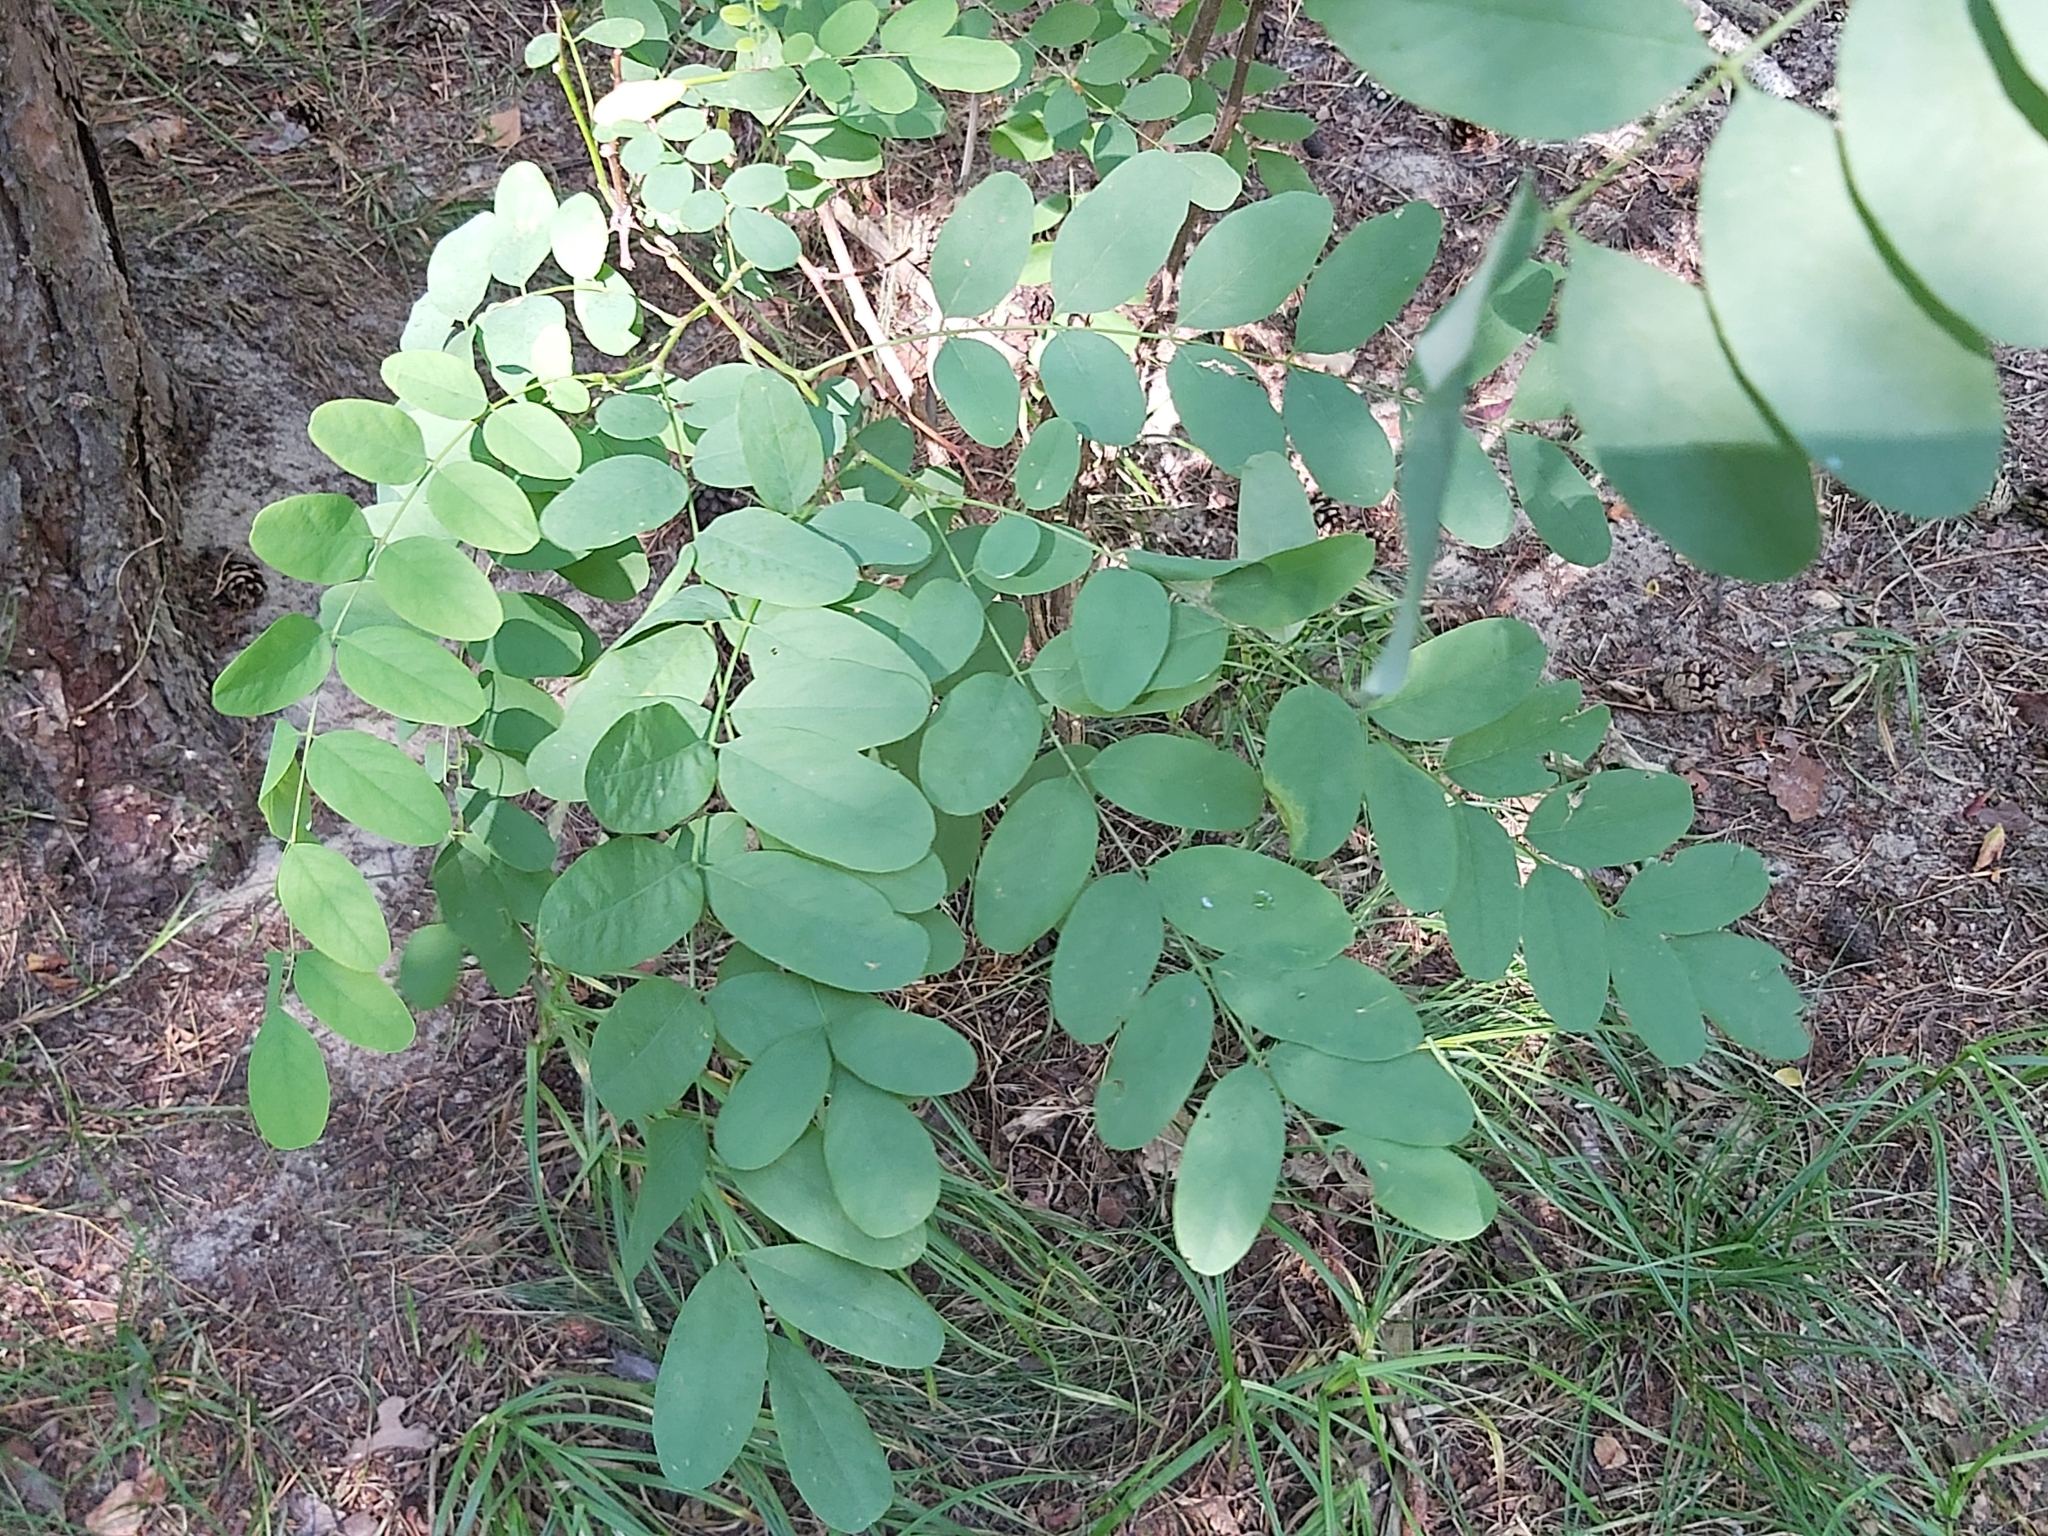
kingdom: Plantae
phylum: Tracheophyta
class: Magnoliopsida
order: Fabales
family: Fabaceae
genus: Robinia
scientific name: Robinia pseudoacacia
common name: Black locust
